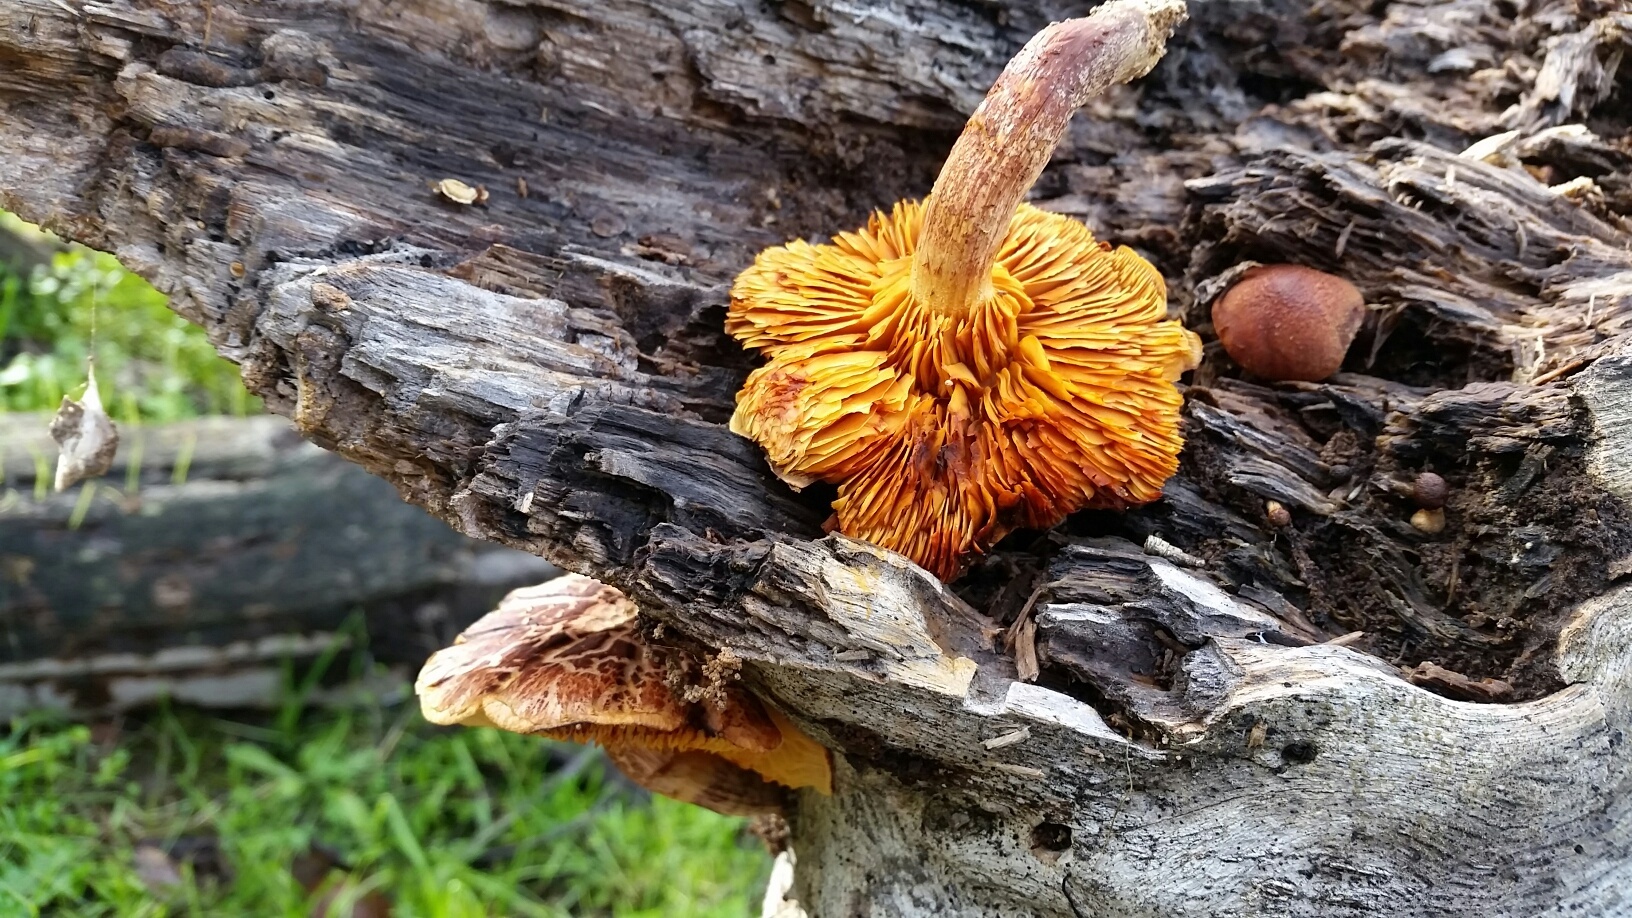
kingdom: Fungi
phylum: Basidiomycota
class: Agaricomycetes
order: Agaricales
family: Hymenogastraceae
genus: Gymnopilus
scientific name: Gymnopilus luteofolius
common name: Yellow-gilled gymnopilus
